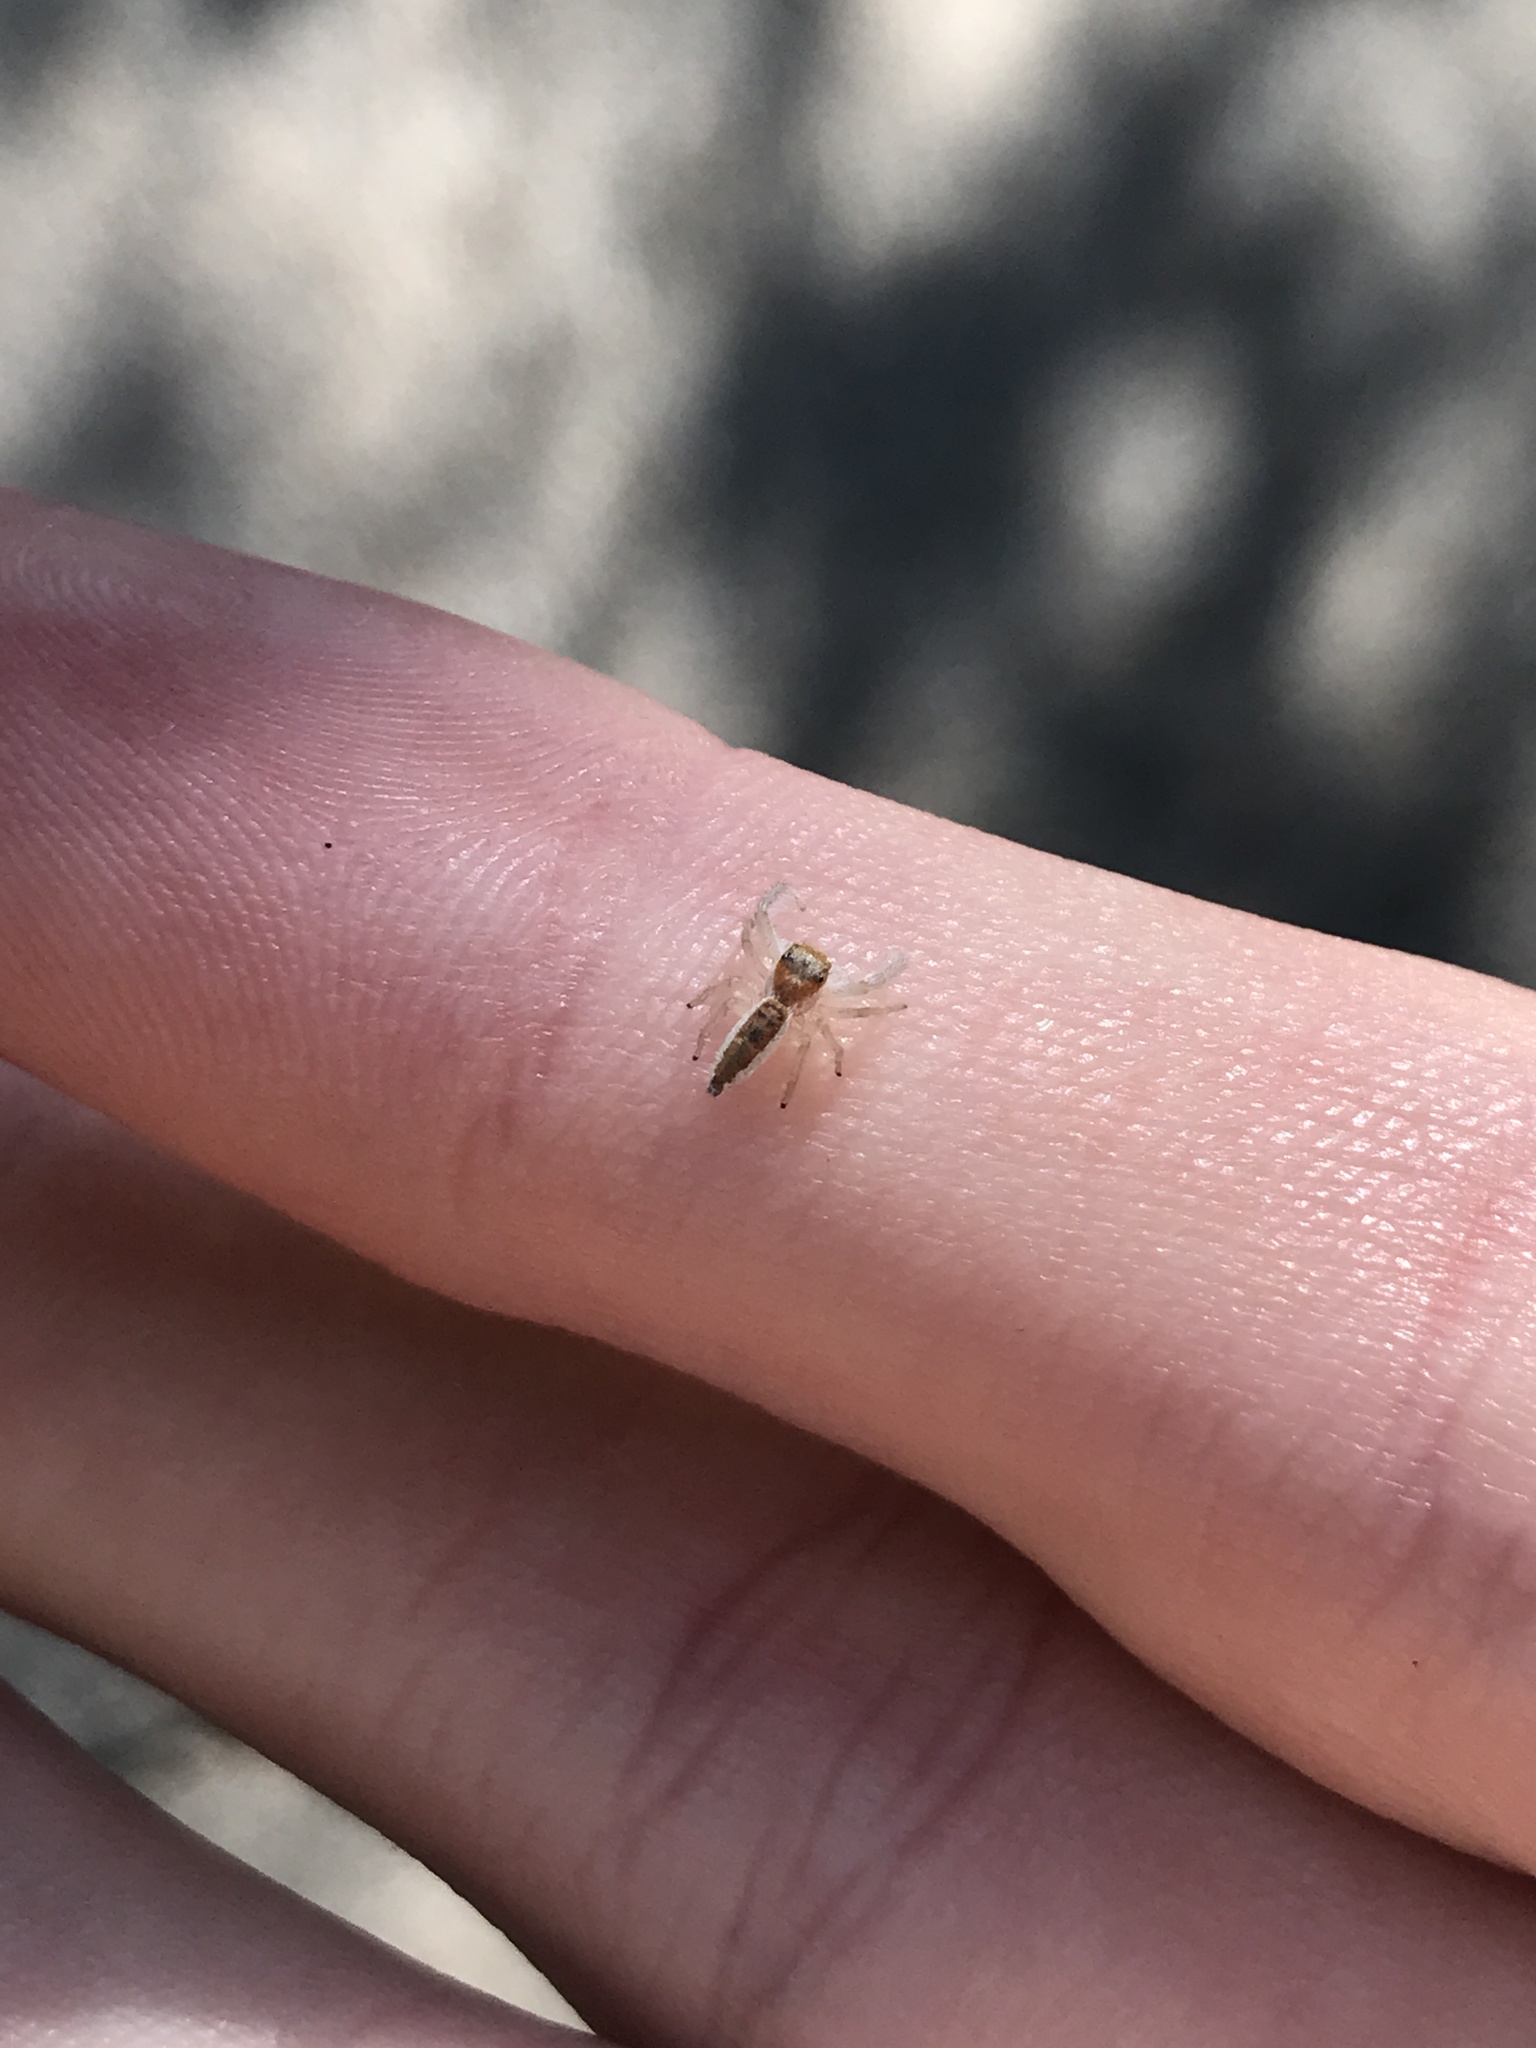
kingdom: Animalia
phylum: Arthropoda
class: Arachnida
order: Araneae
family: Salticidae
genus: Hentzia
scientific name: Hentzia mitrata
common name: White-jawed jumping spider
